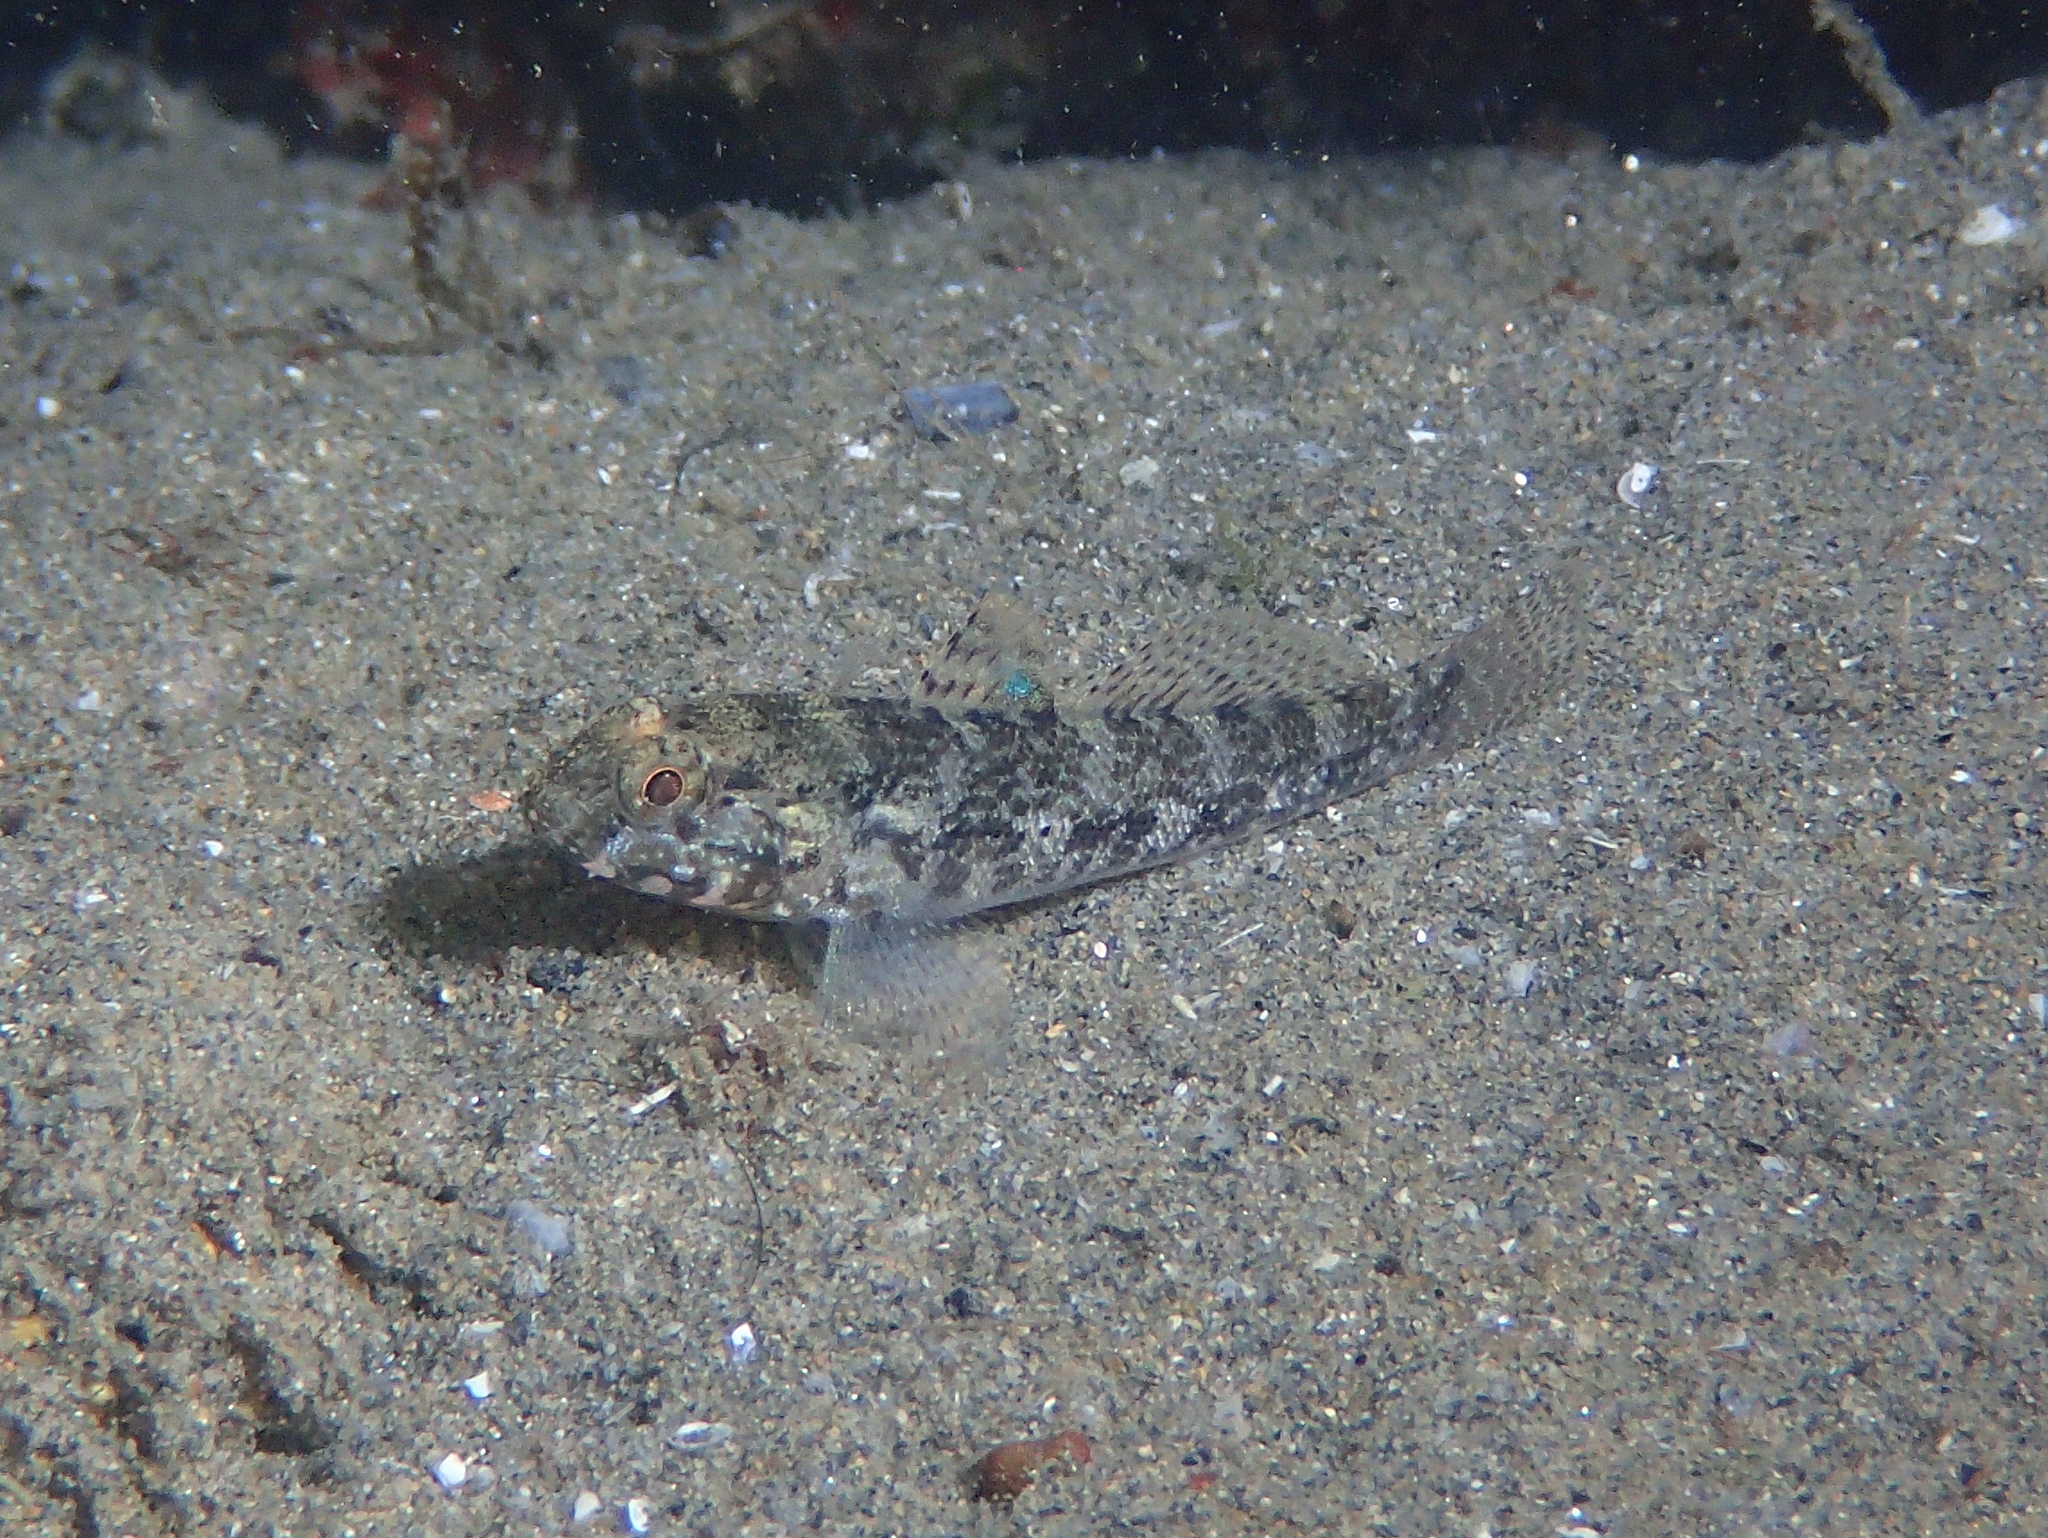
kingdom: Animalia
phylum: Chordata
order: Perciformes
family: Gobiidae
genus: Gobius
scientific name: Gobius paganellus
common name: Rock goby
